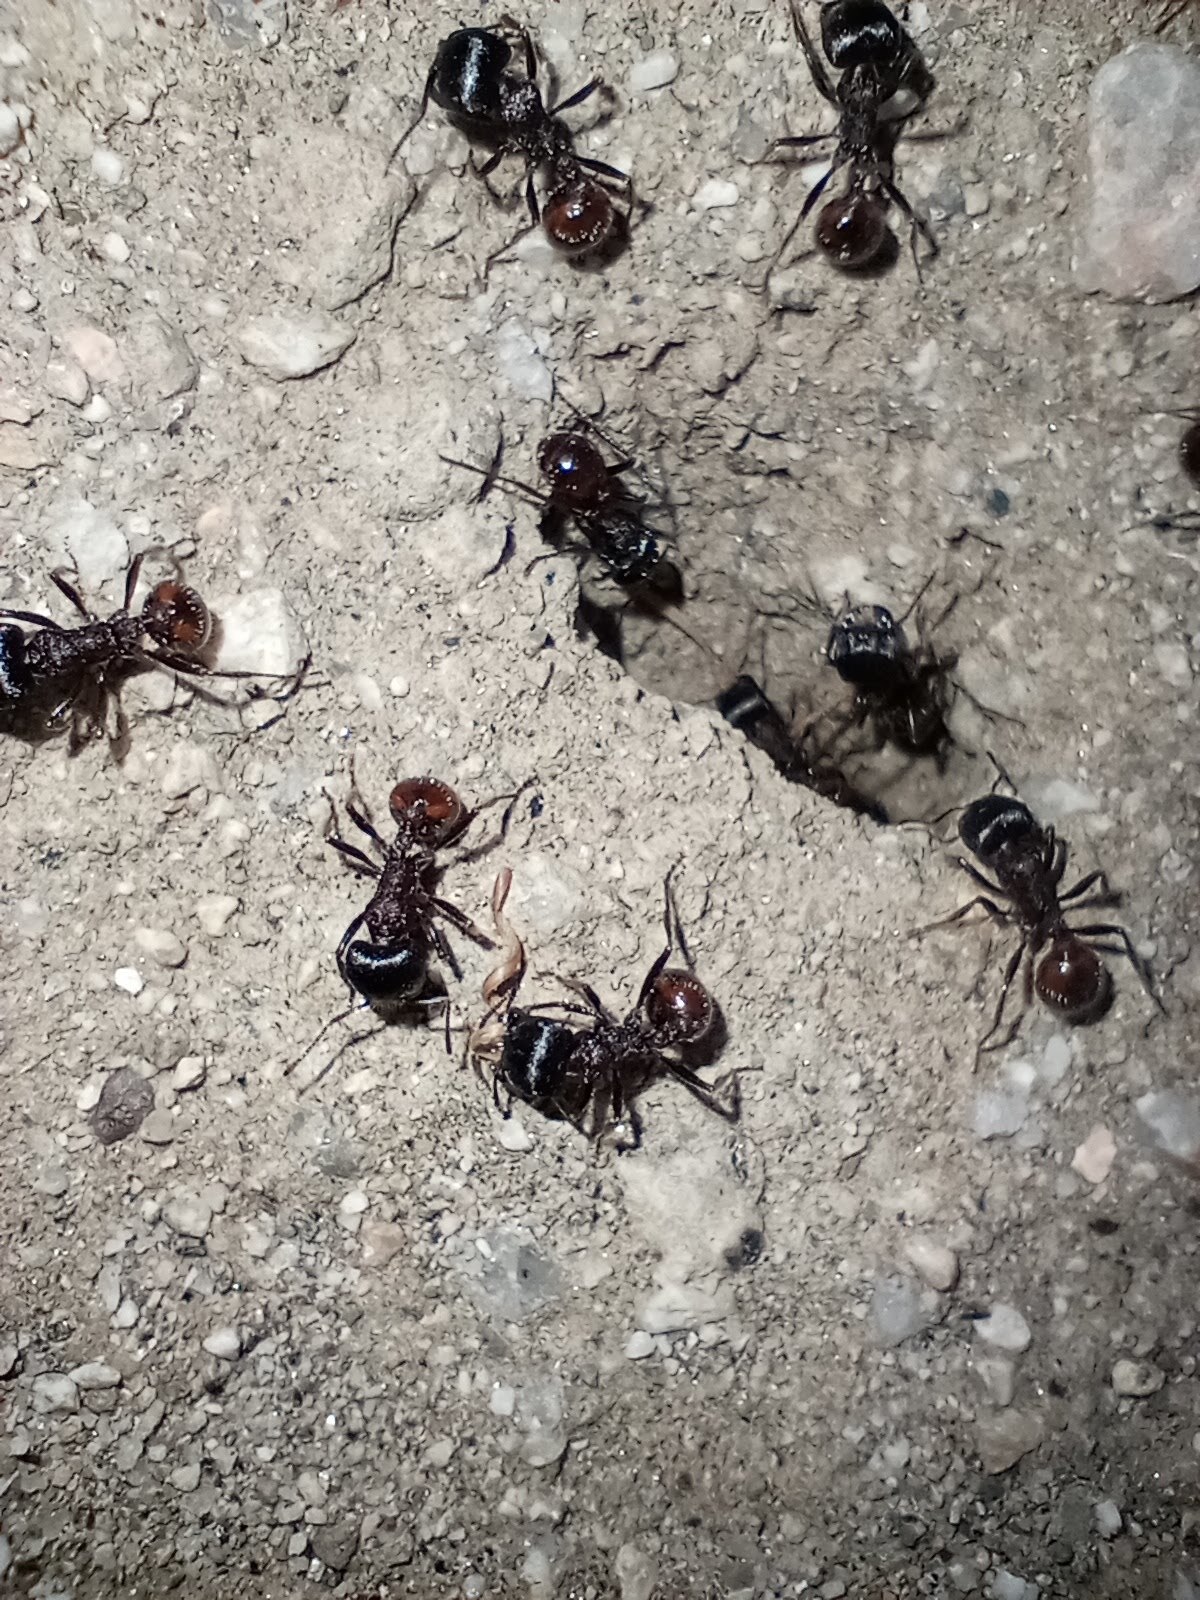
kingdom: Animalia
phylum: Arthropoda
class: Insecta
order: Hymenoptera
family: Formicidae
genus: Pogonomyrmex
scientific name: Pogonomyrmex rugosus
